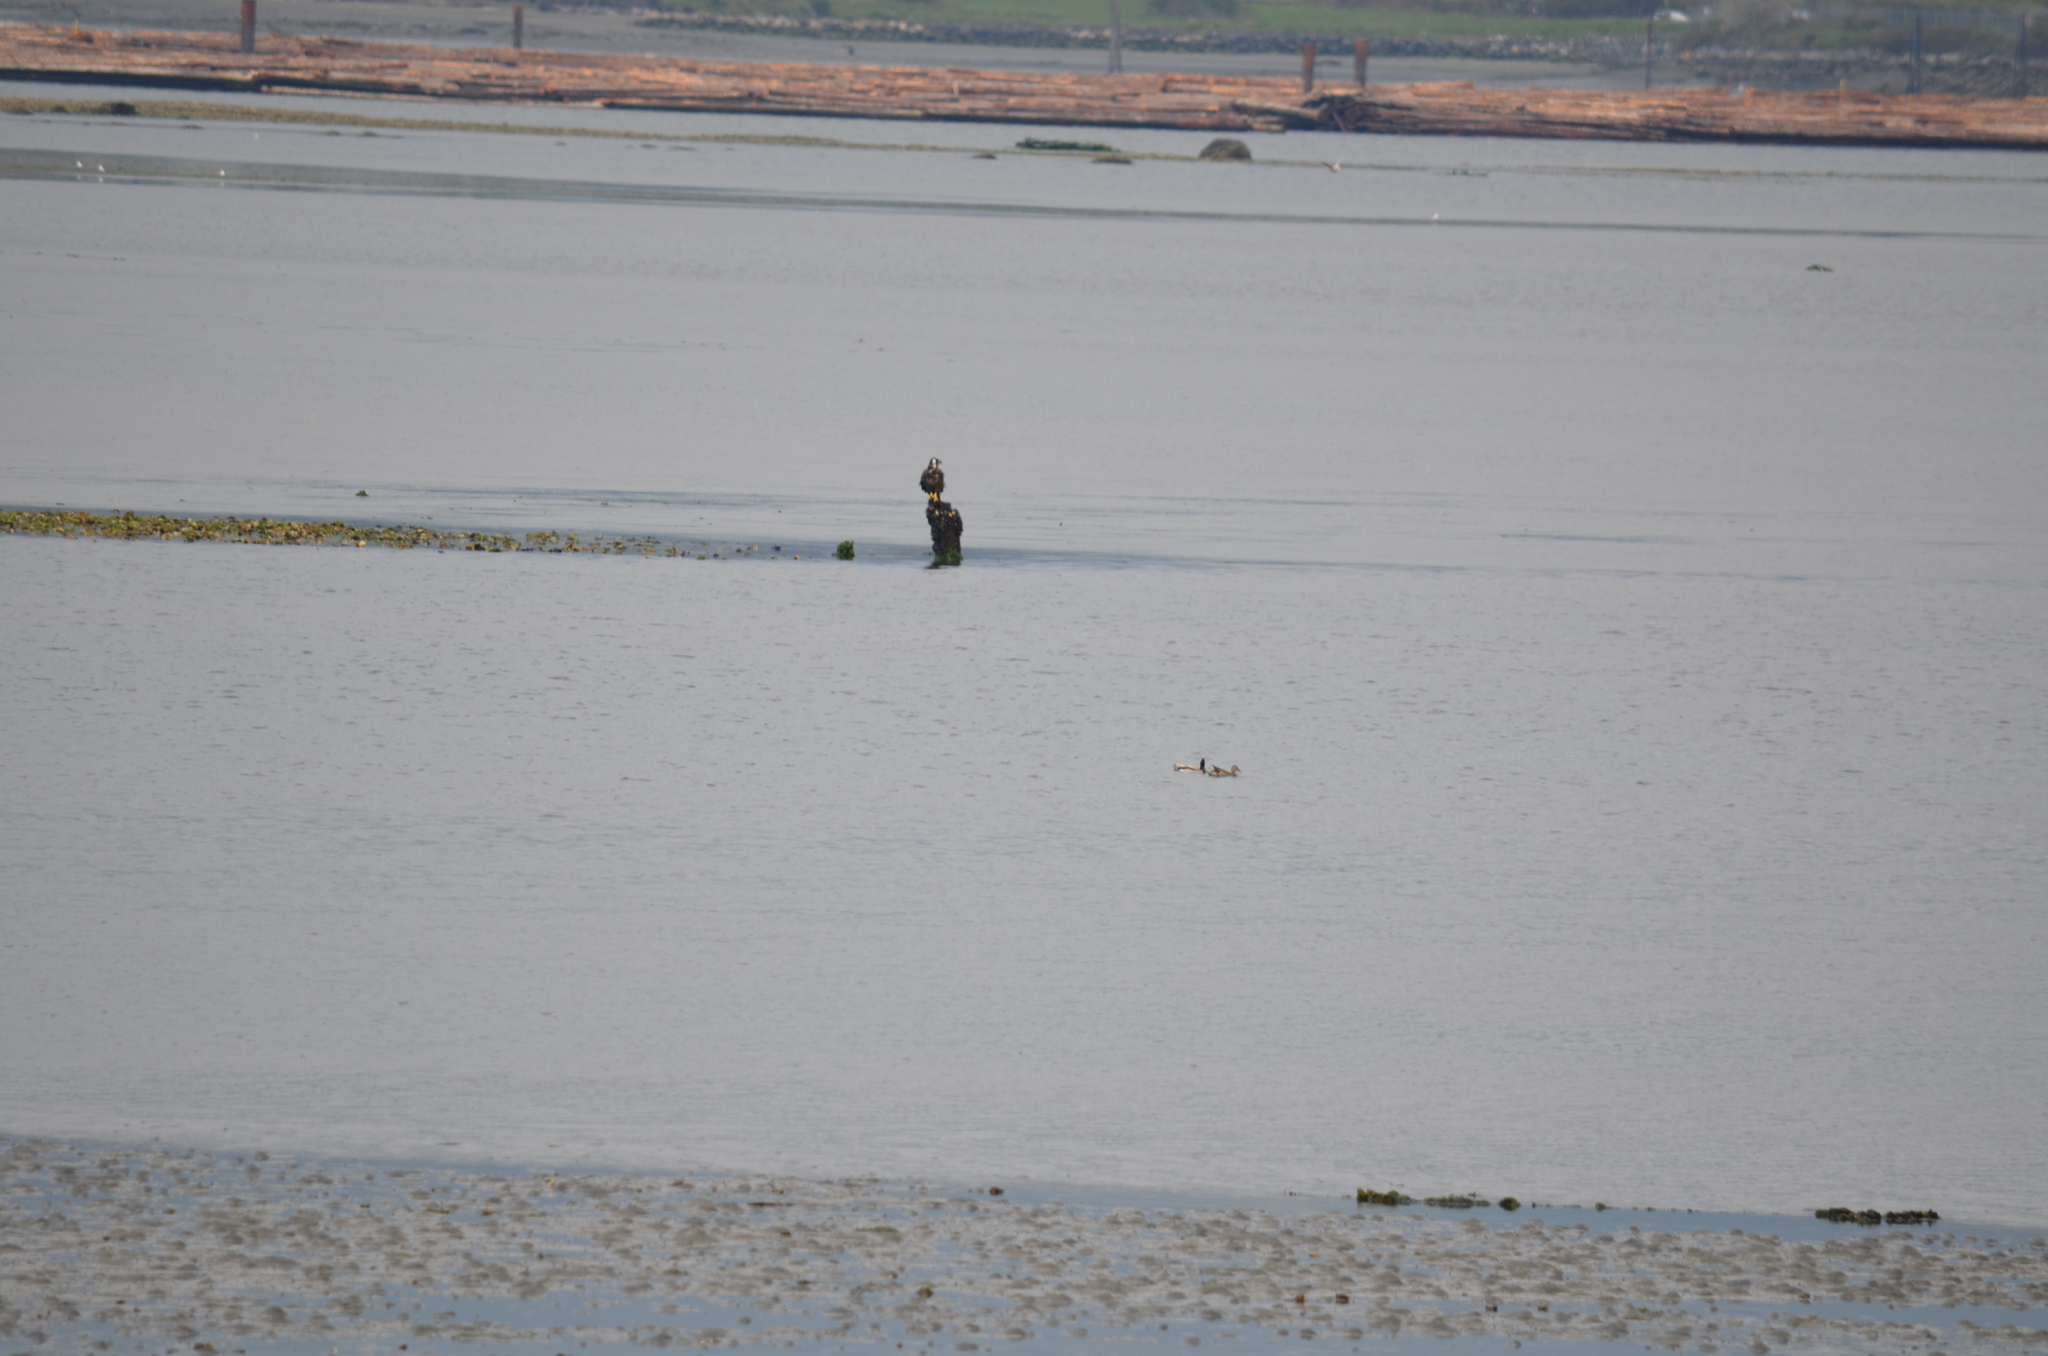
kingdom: Animalia
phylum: Chordata
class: Aves
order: Anseriformes
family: Anatidae
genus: Anas
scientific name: Anas platyrhynchos
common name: Mallard
